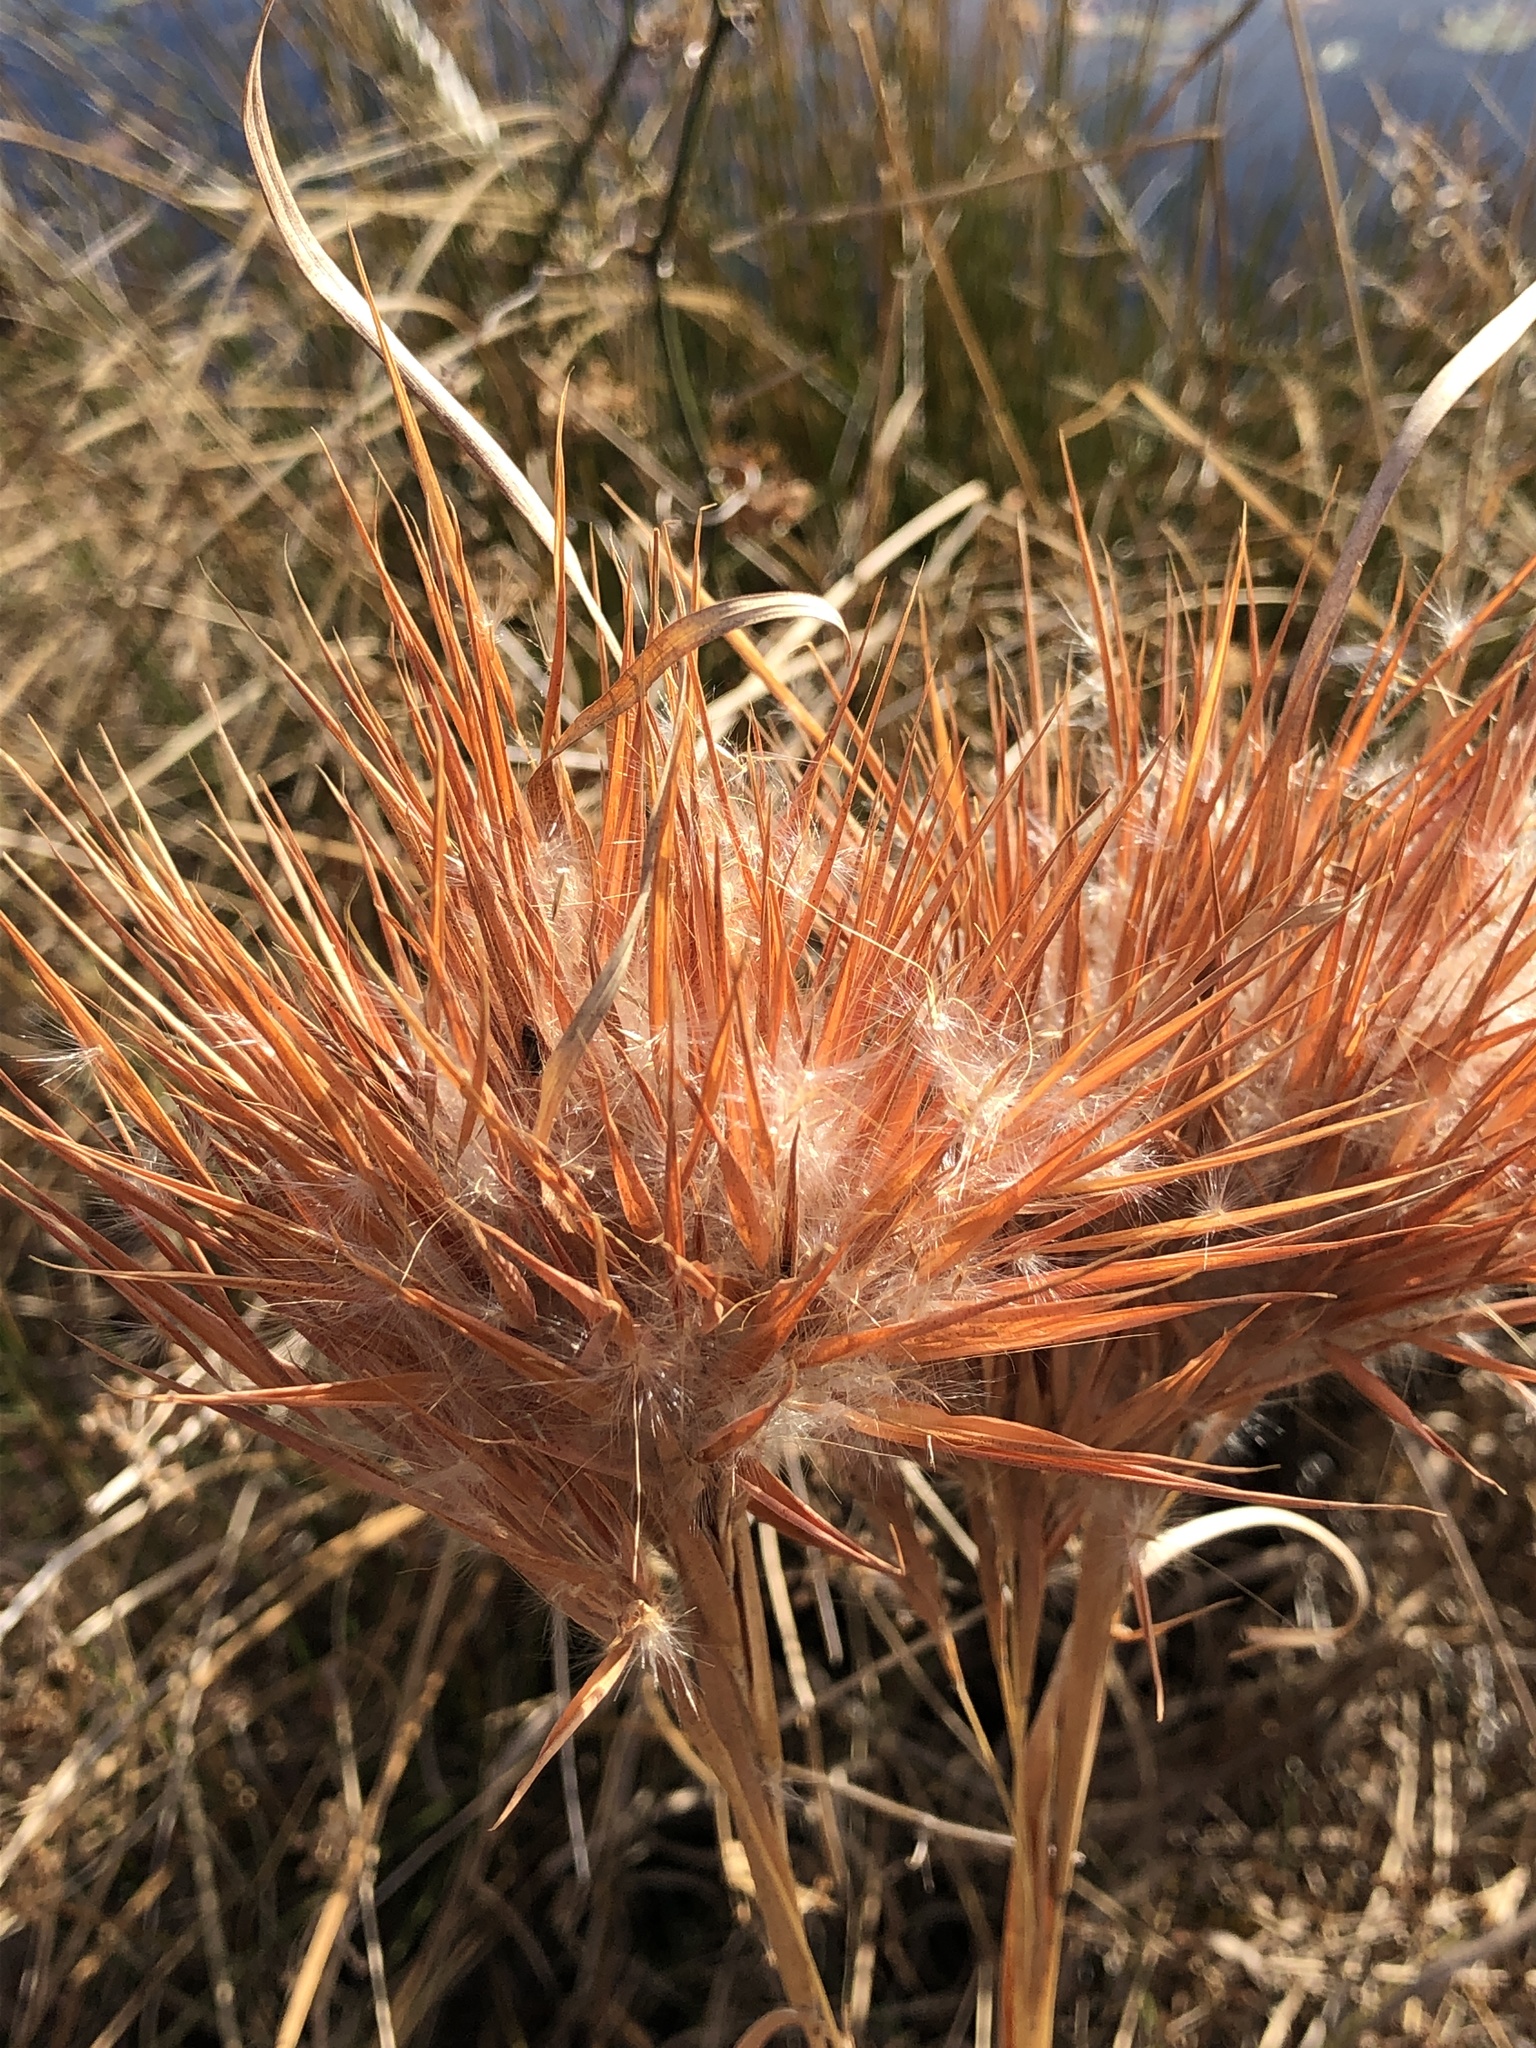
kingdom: Plantae
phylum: Tracheophyta
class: Liliopsida
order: Poales
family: Poaceae
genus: Andropogon
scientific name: Andropogon glomeratus
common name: Bushy beard grass
